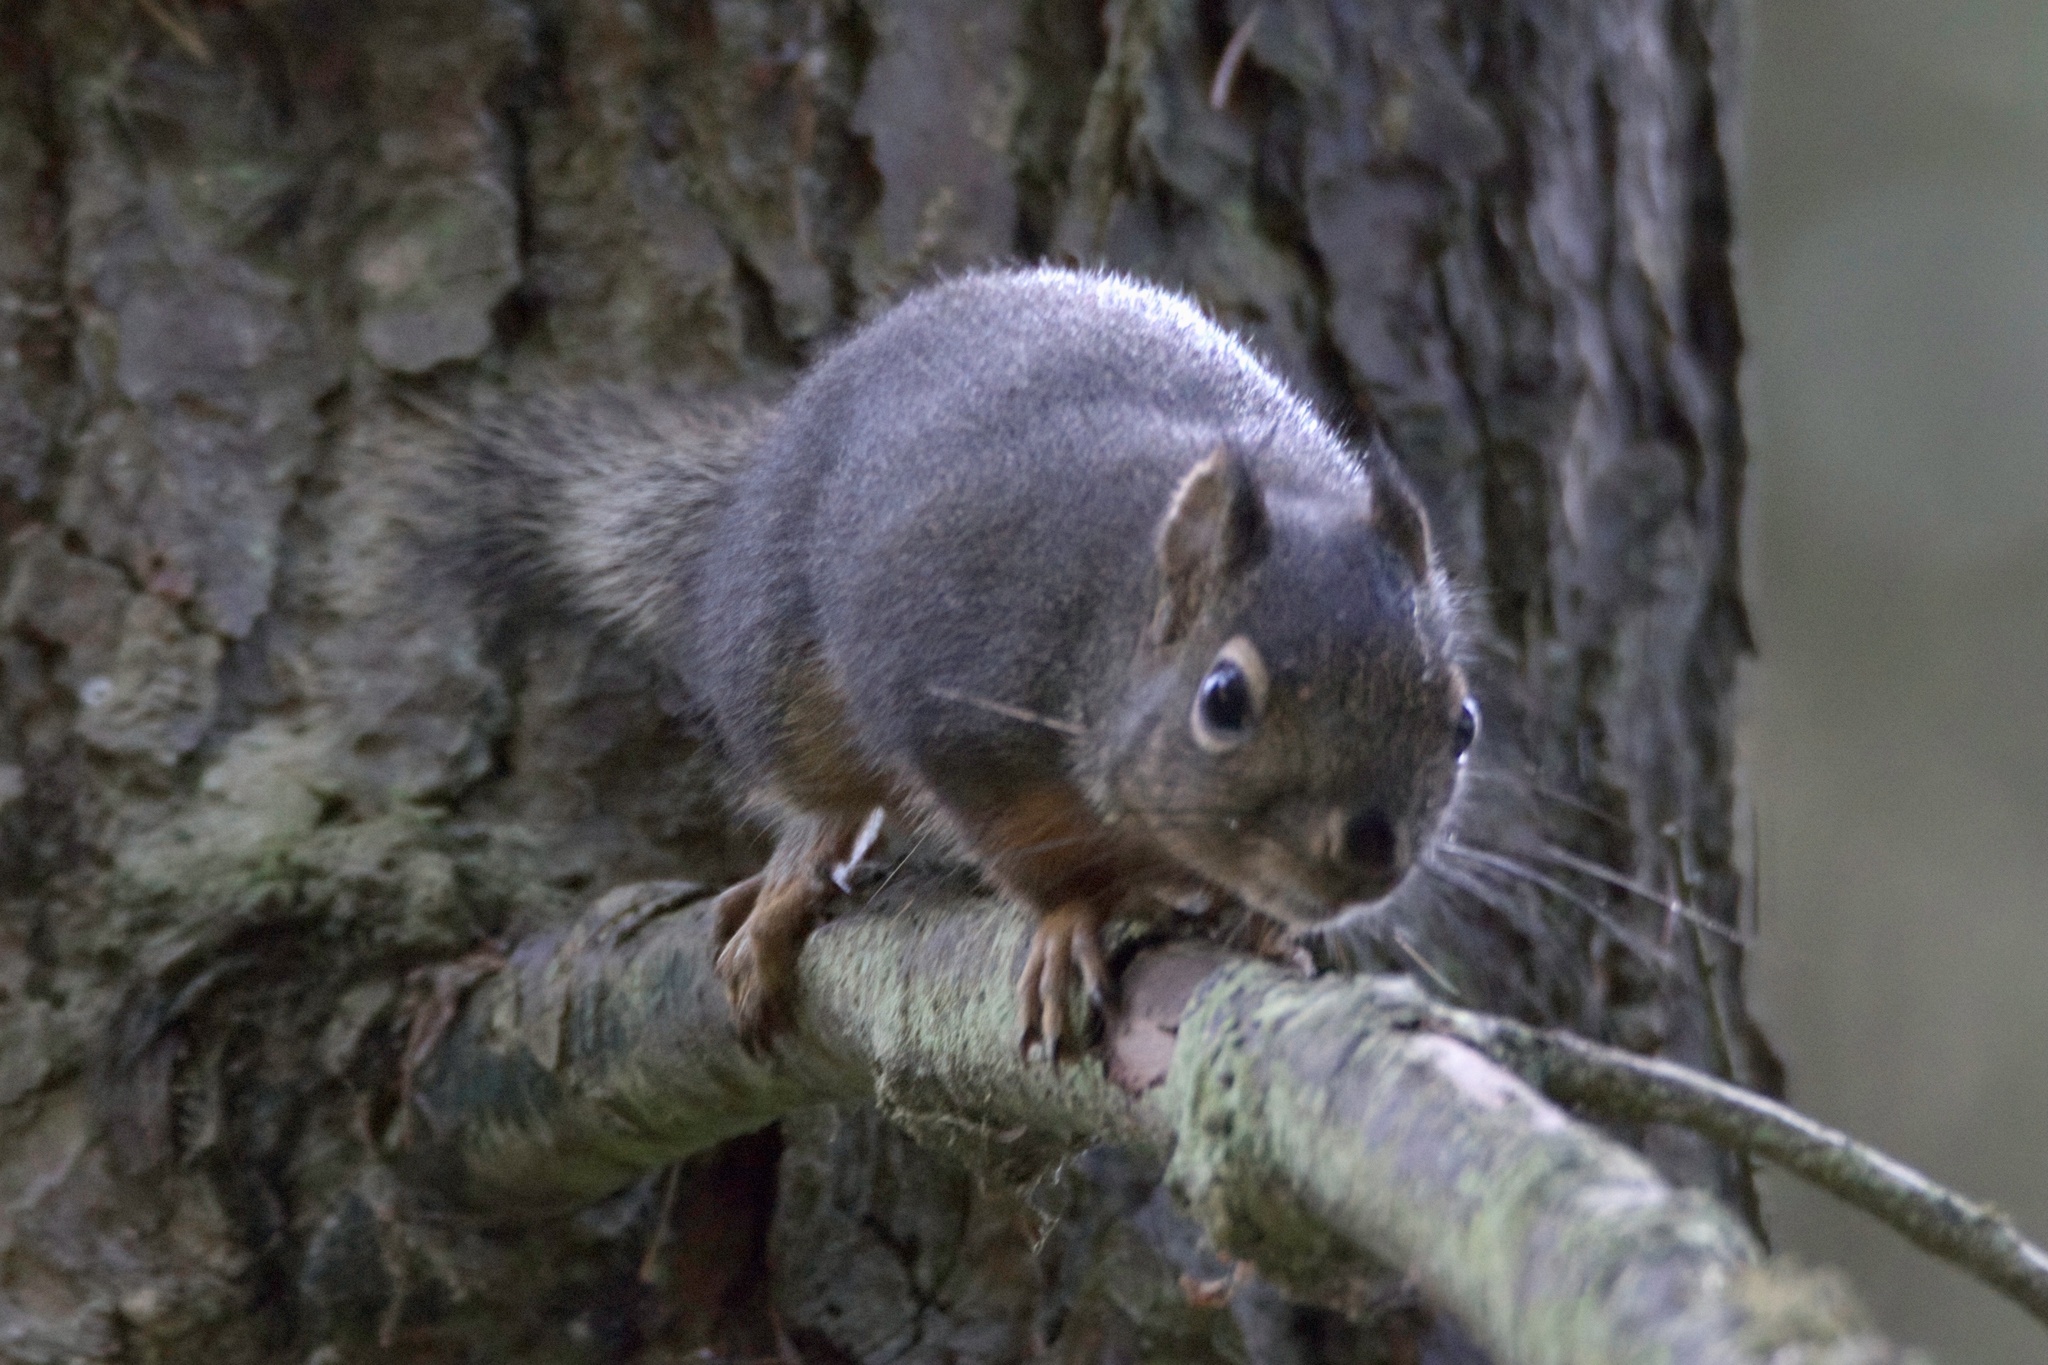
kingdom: Animalia
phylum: Chordata
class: Mammalia
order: Rodentia
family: Sciuridae
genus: Tamiasciurus
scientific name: Tamiasciurus douglasii
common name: Douglas's squirrel
